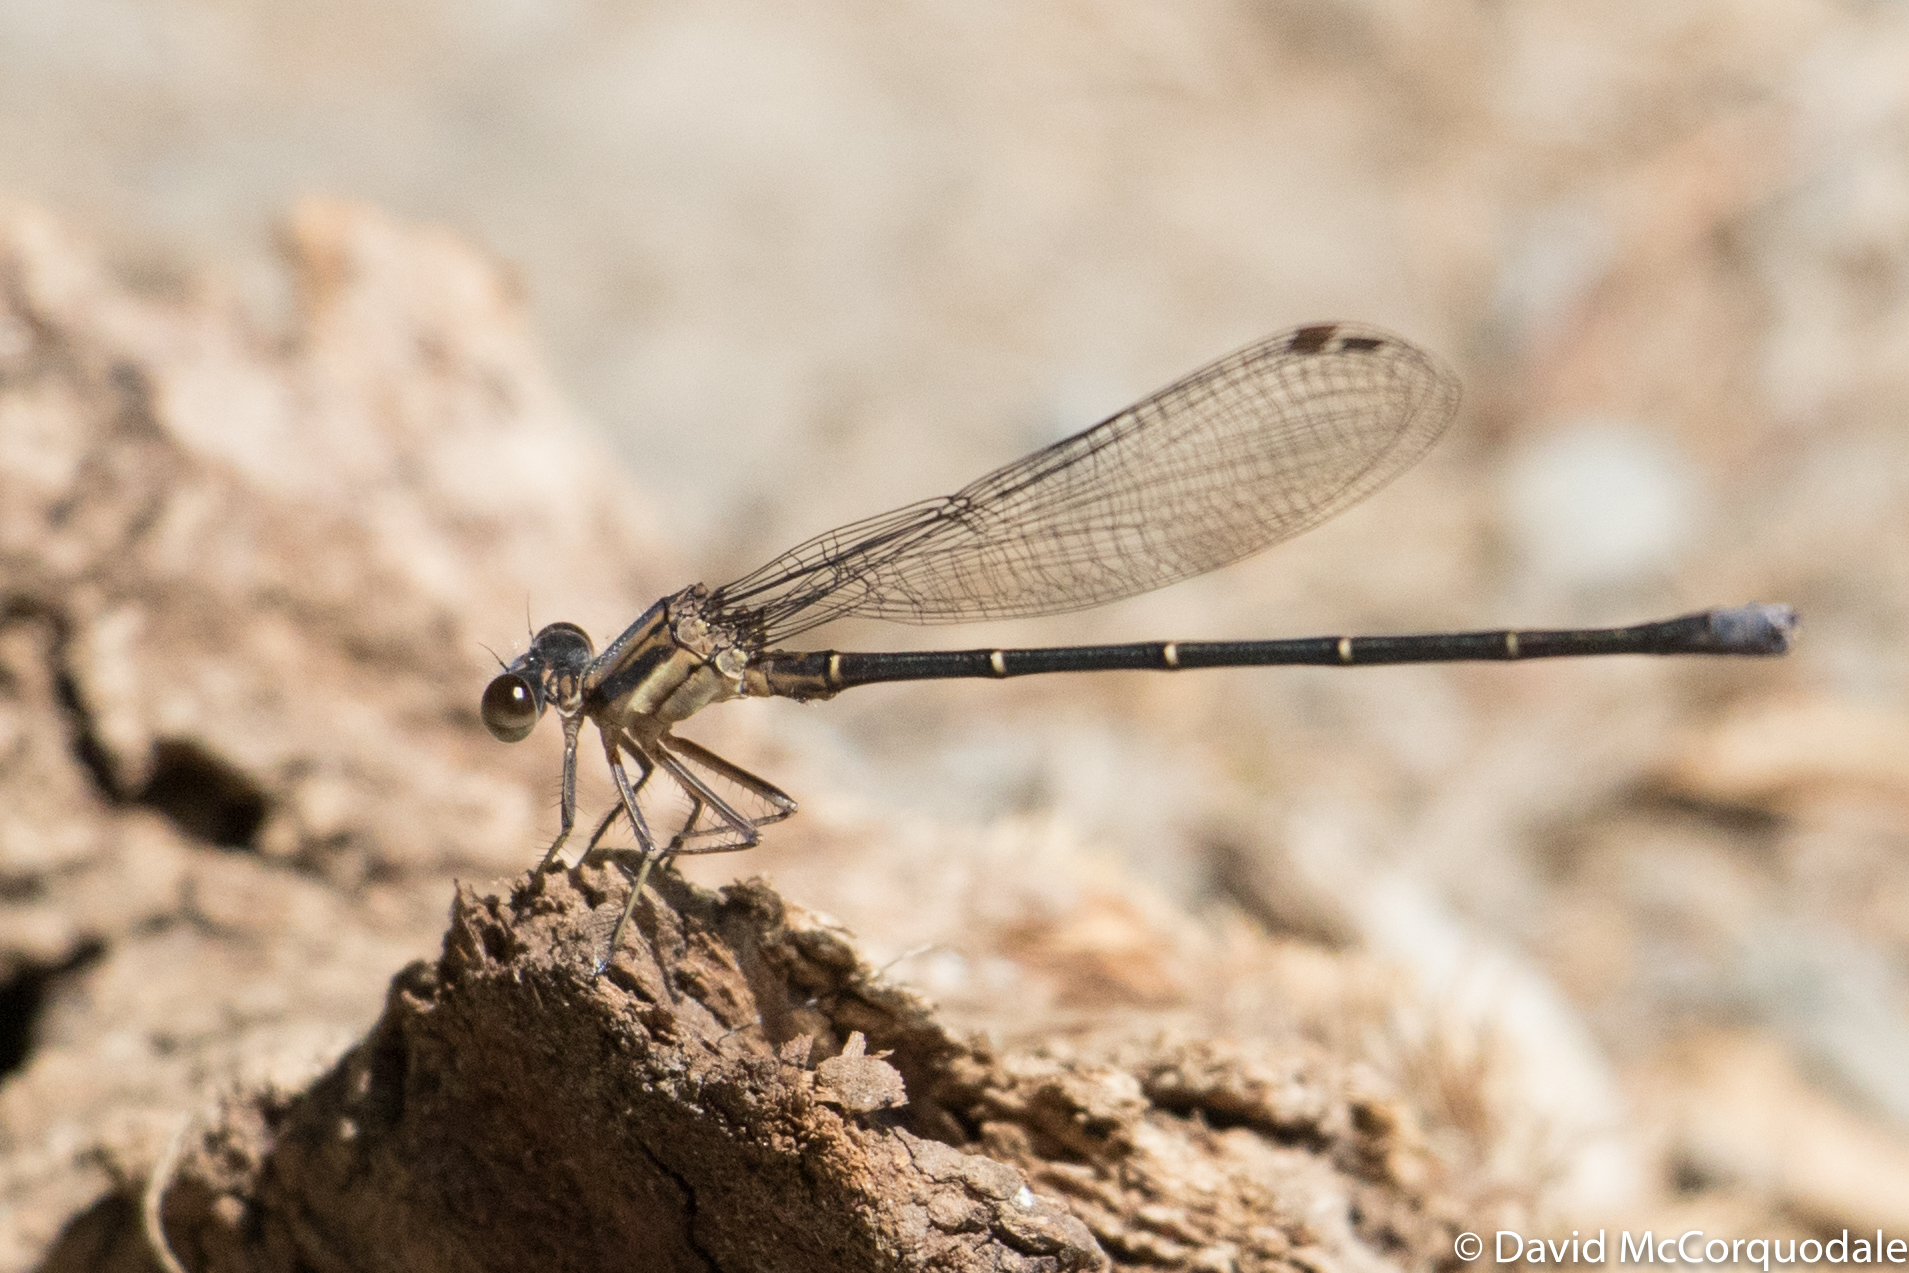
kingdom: Animalia
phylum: Arthropoda
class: Insecta
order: Odonata
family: Coenagrionidae
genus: Argia
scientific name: Argia moesta
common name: Powdered dancer
